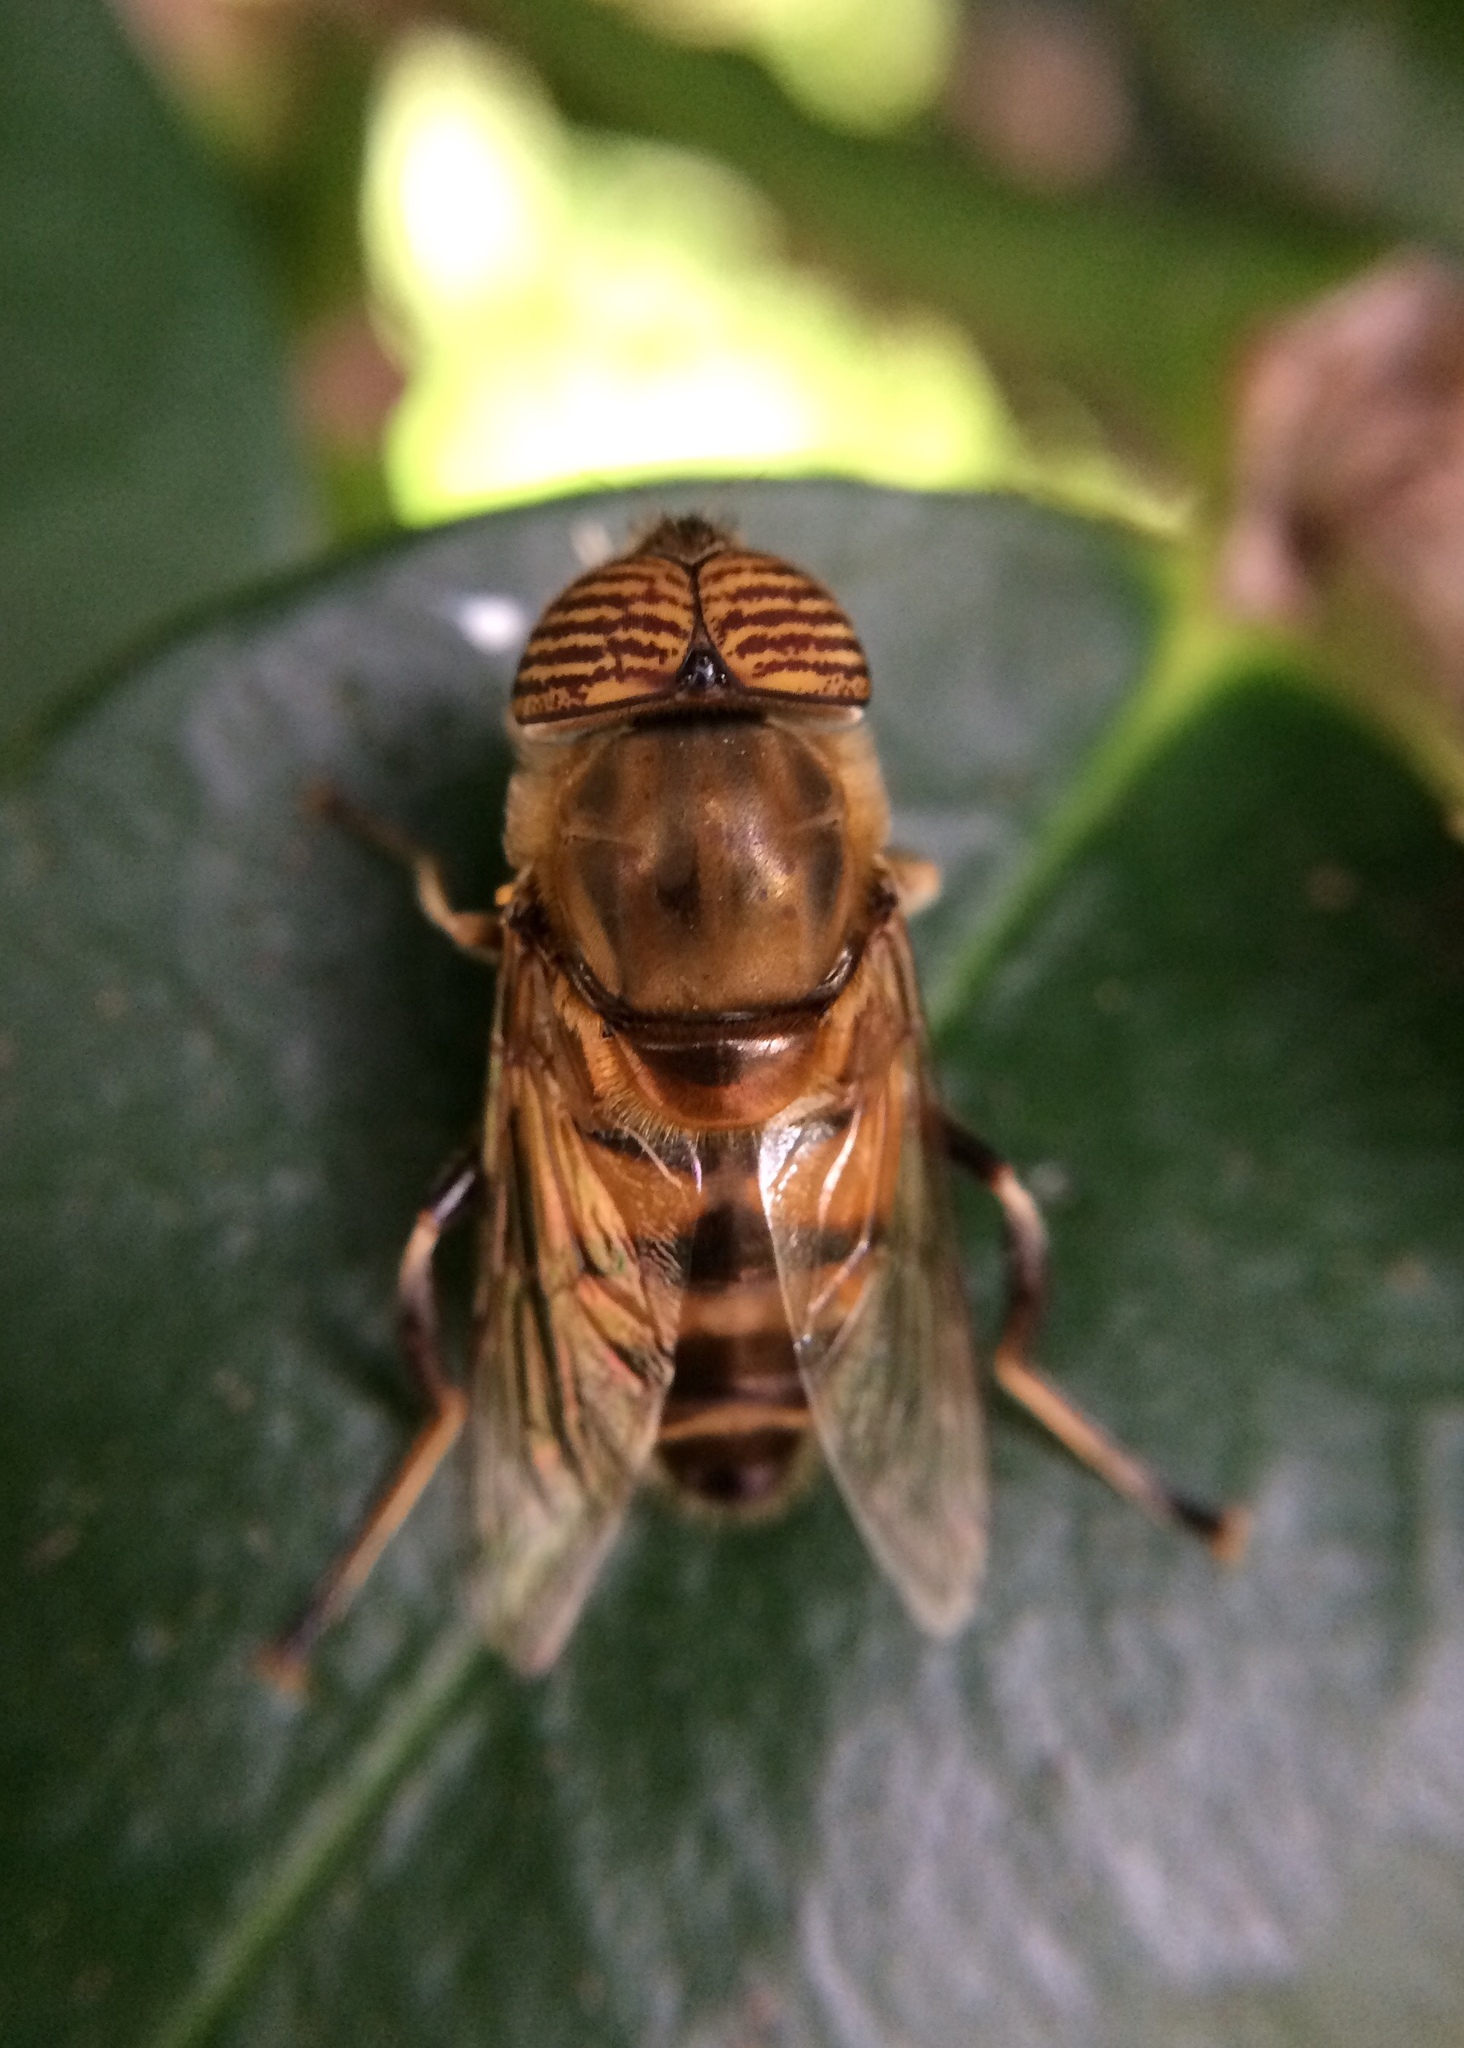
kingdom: Animalia
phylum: Arthropoda
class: Insecta
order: Diptera
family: Syrphidae
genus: Eristalinus
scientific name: Eristalinus taeniops
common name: Syrphid fly
